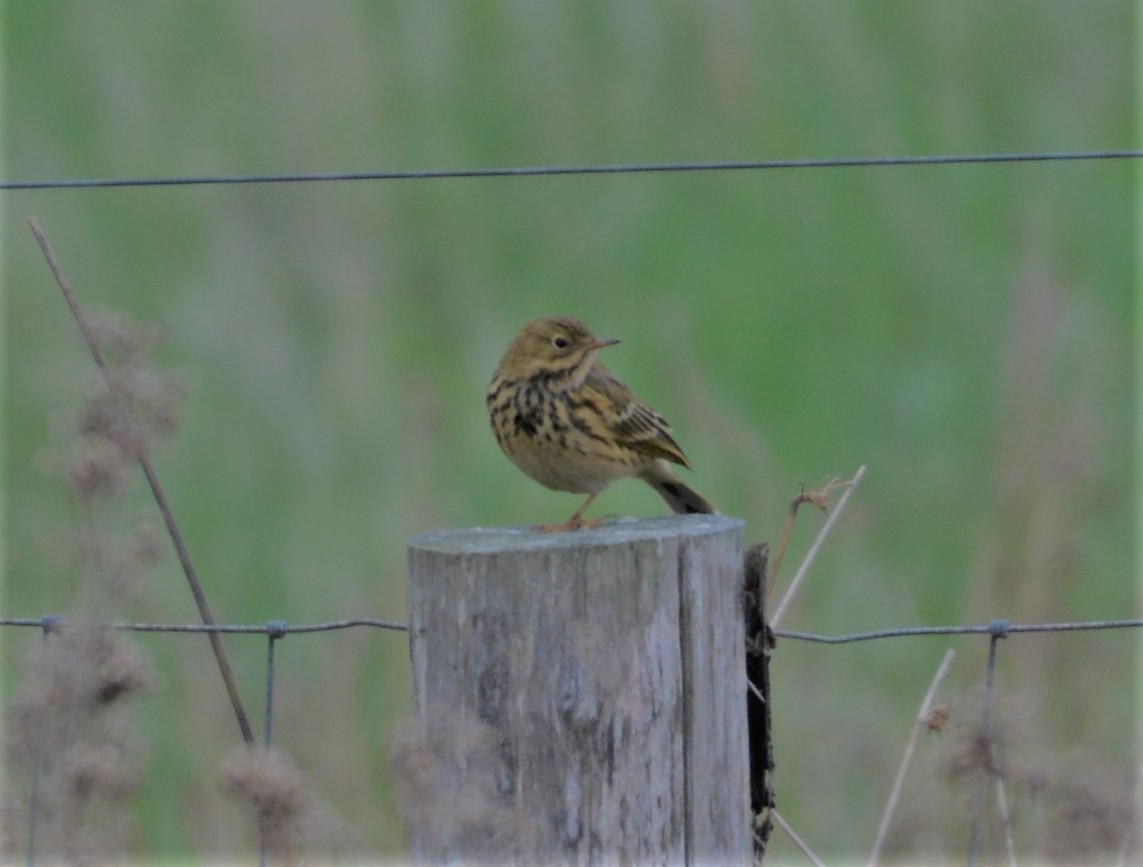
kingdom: Animalia
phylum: Chordata
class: Aves
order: Passeriformes
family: Motacillidae
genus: Anthus
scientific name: Anthus pratensis
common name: Meadow pipit
